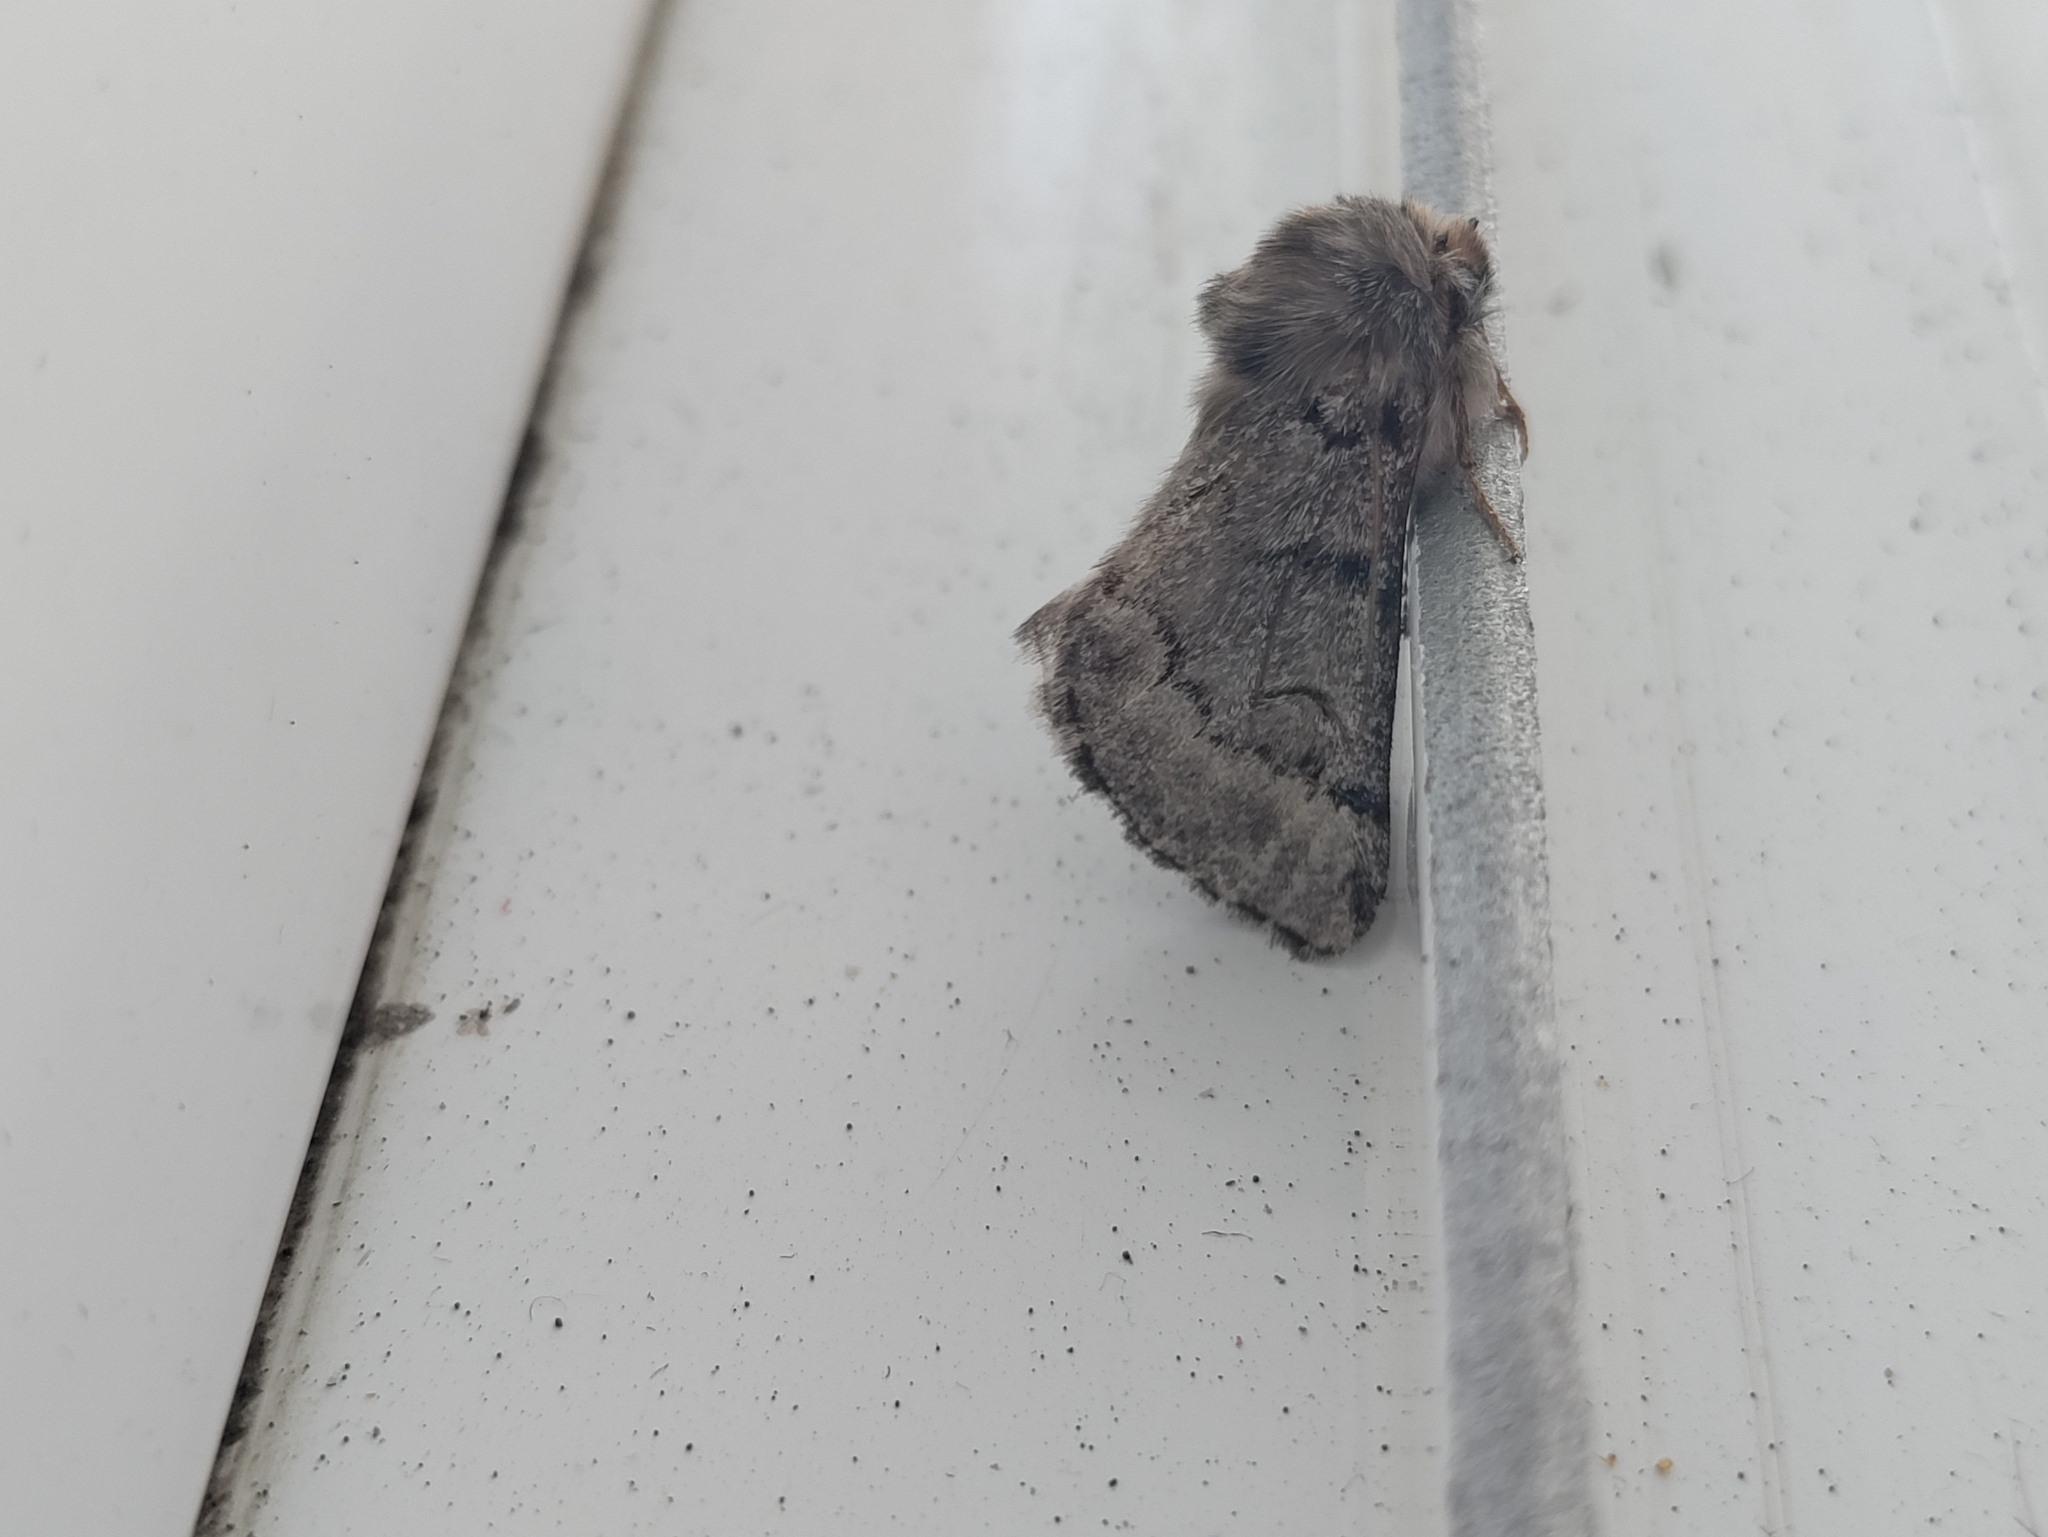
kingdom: Animalia
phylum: Arthropoda
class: Insecta
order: Lepidoptera
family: Notodontidae
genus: Thaumetopoea
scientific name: Thaumetopoea wilkinsoni
